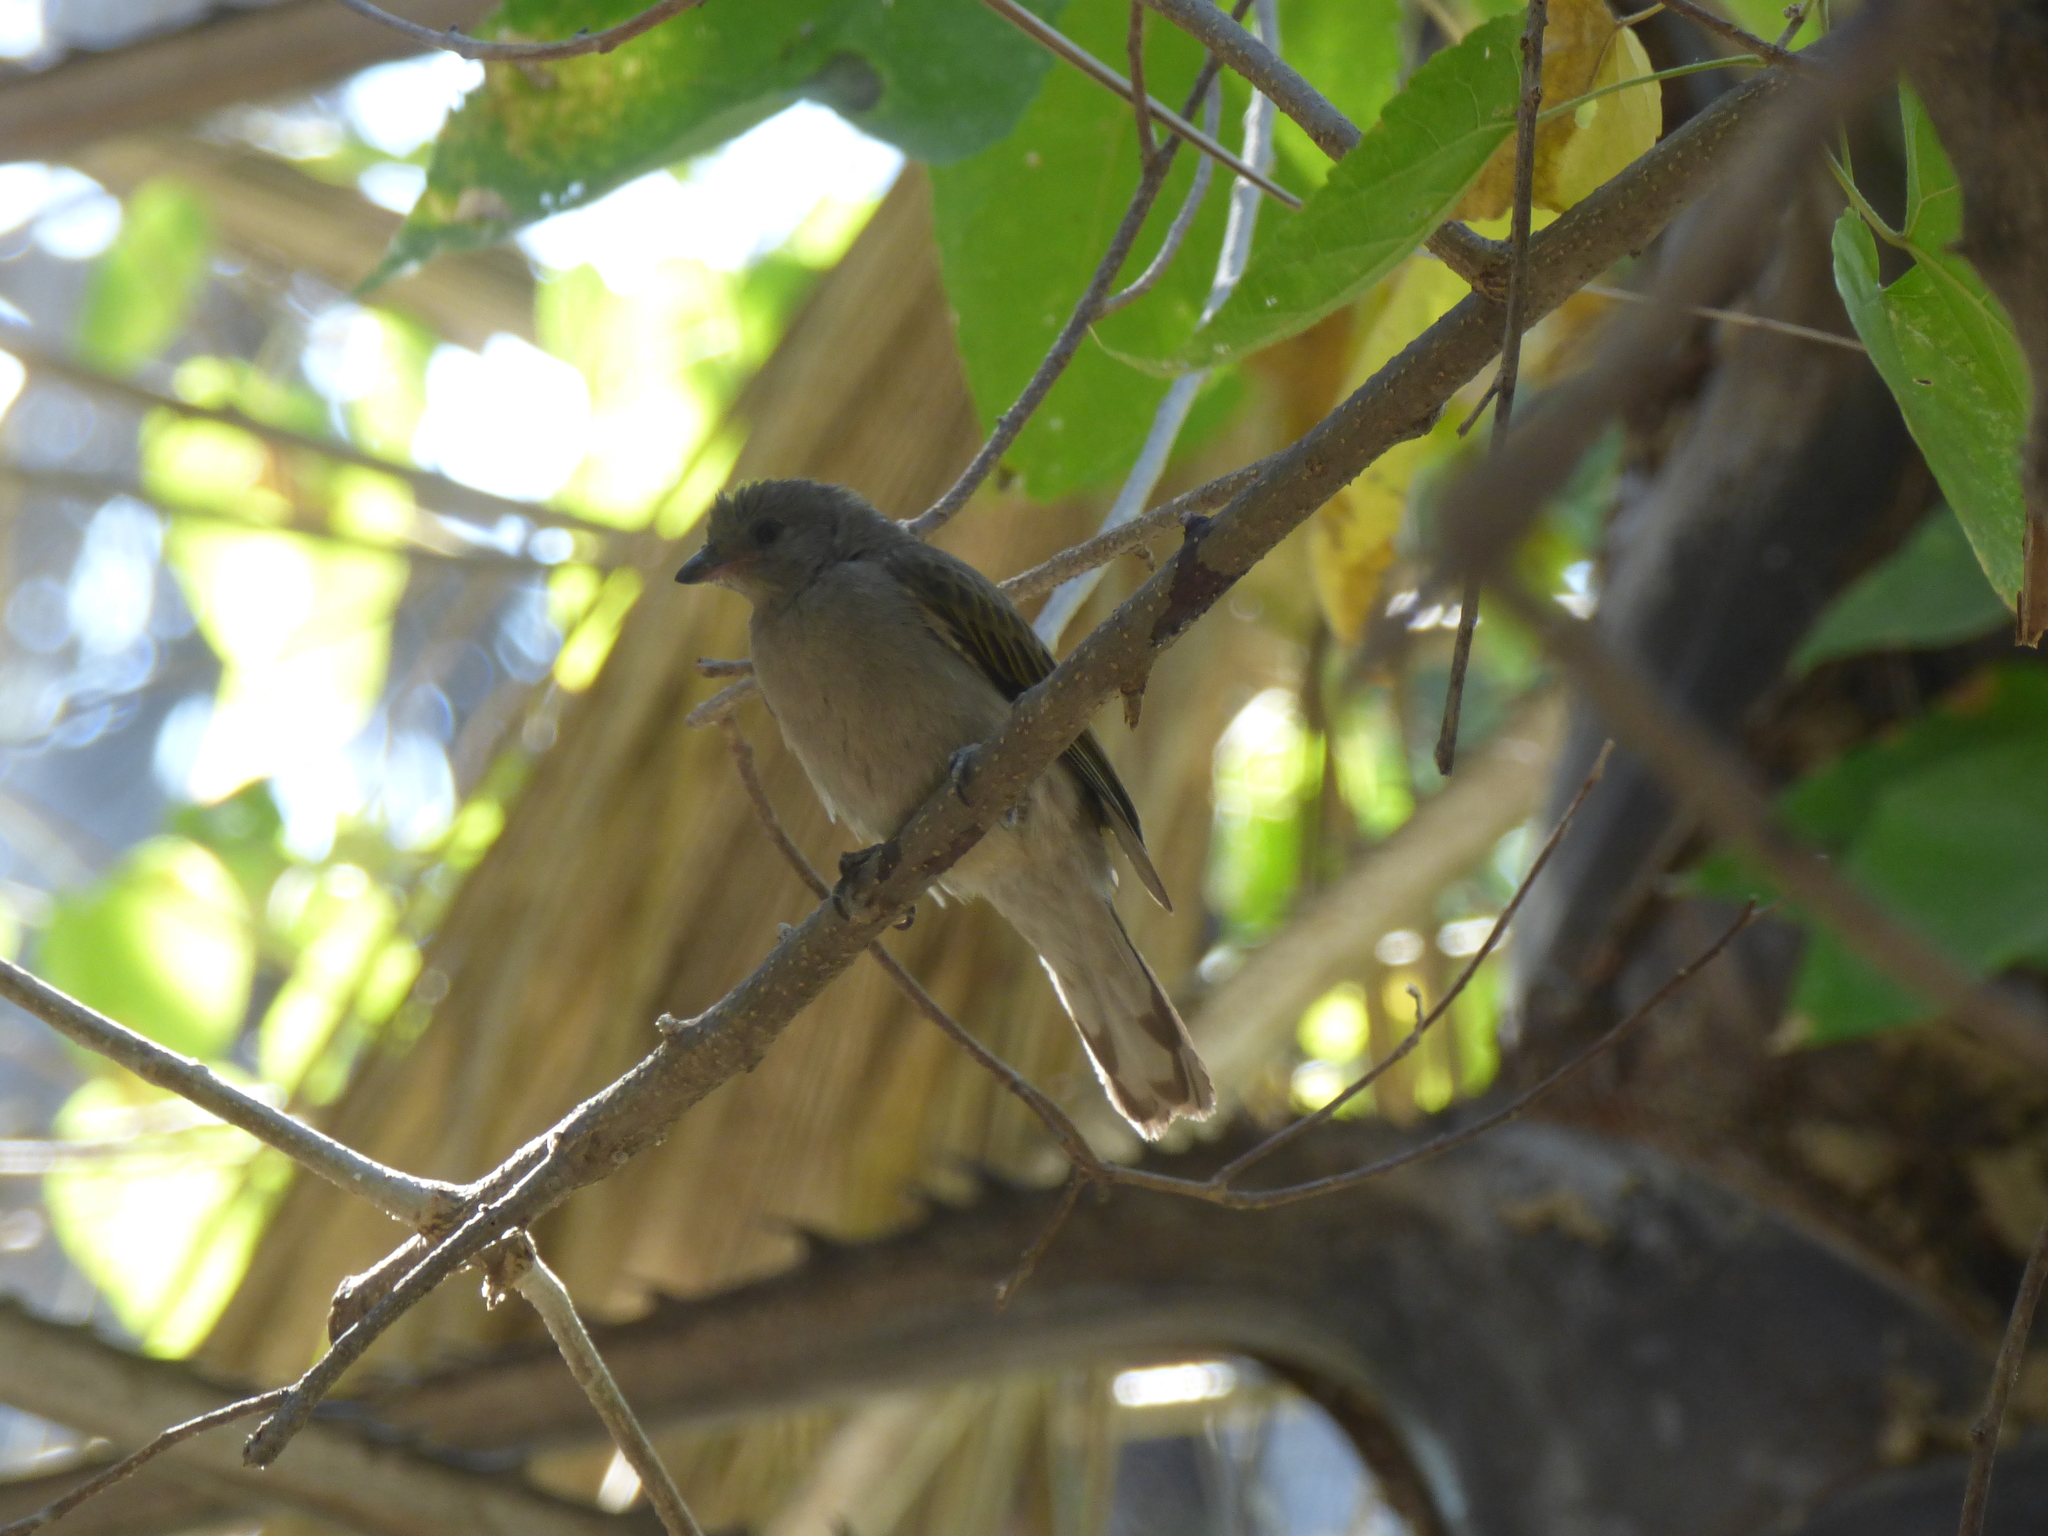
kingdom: Animalia
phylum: Chordata
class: Aves
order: Piciformes
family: Indicatoridae
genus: Indicator
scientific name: Indicator minor
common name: Lesser honeyguide
